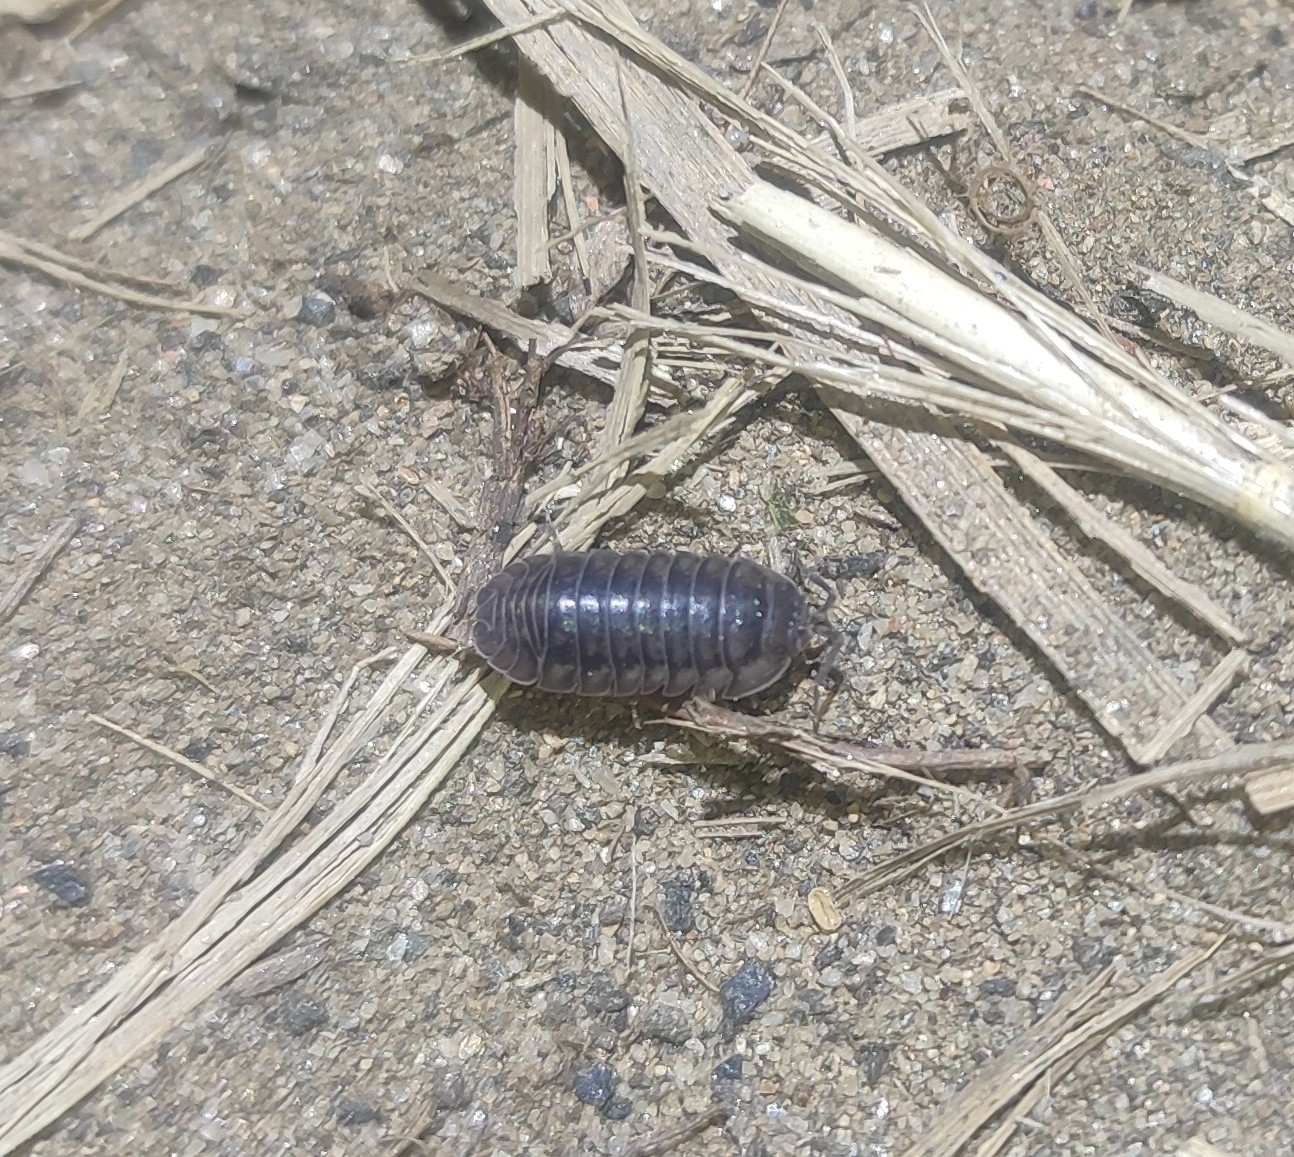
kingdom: Animalia
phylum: Arthropoda
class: Malacostraca
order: Isopoda
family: Armadillidiidae
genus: Armadillidium
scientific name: Armadillidium nasatum
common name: Isopod
